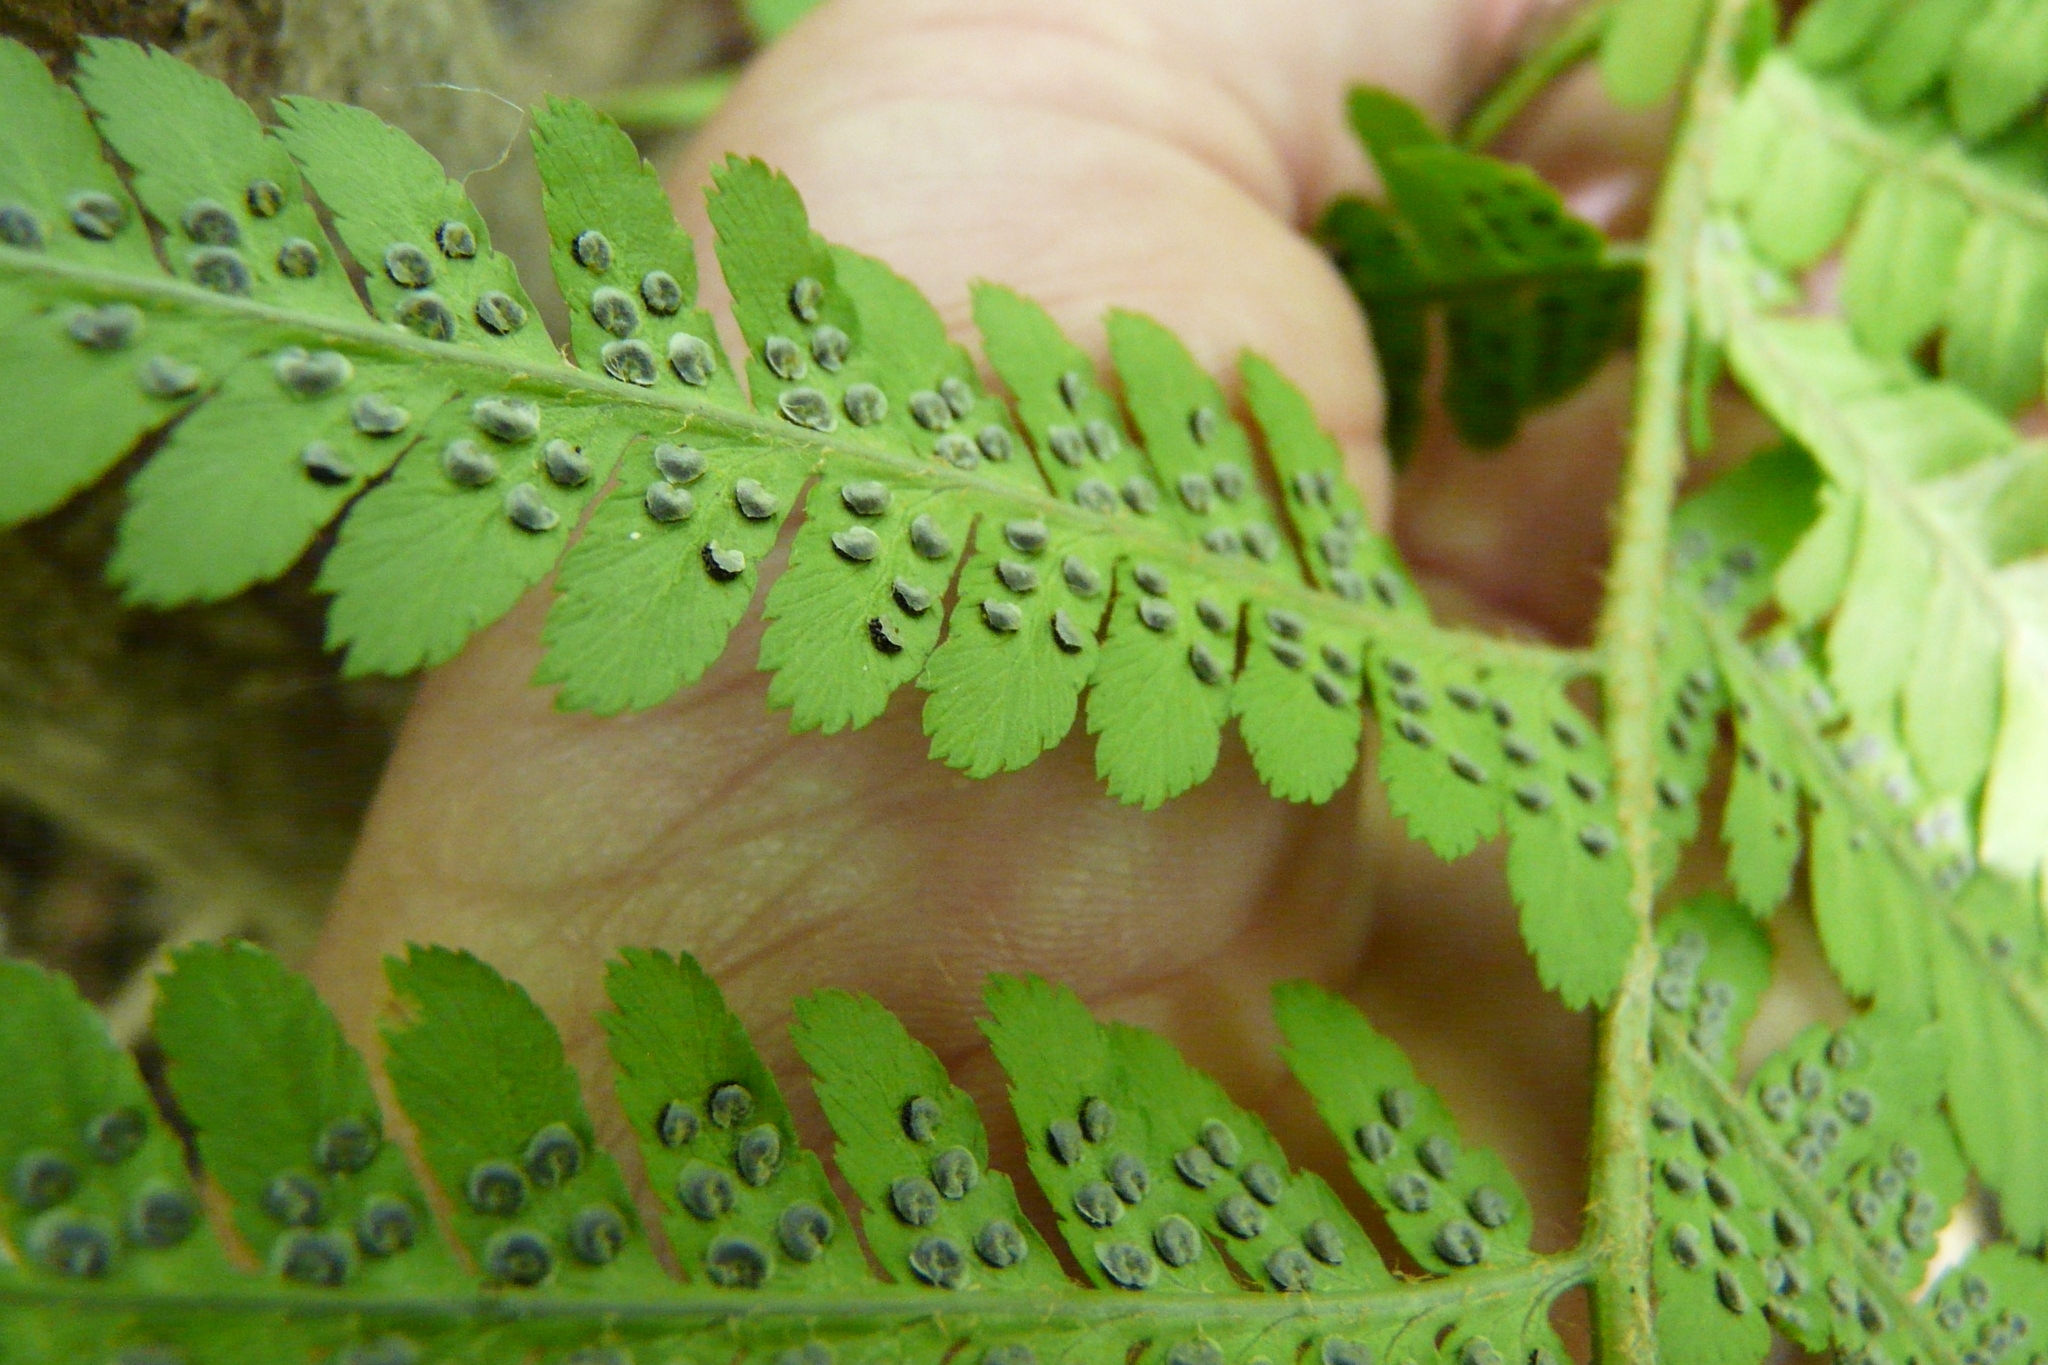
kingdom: Plantae
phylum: Tracheophyta
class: Polypodiopsida
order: Polypodiales
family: Dryopteridaceae
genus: Dryopteris
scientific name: Dryopteris filix-mas
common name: Male fern
